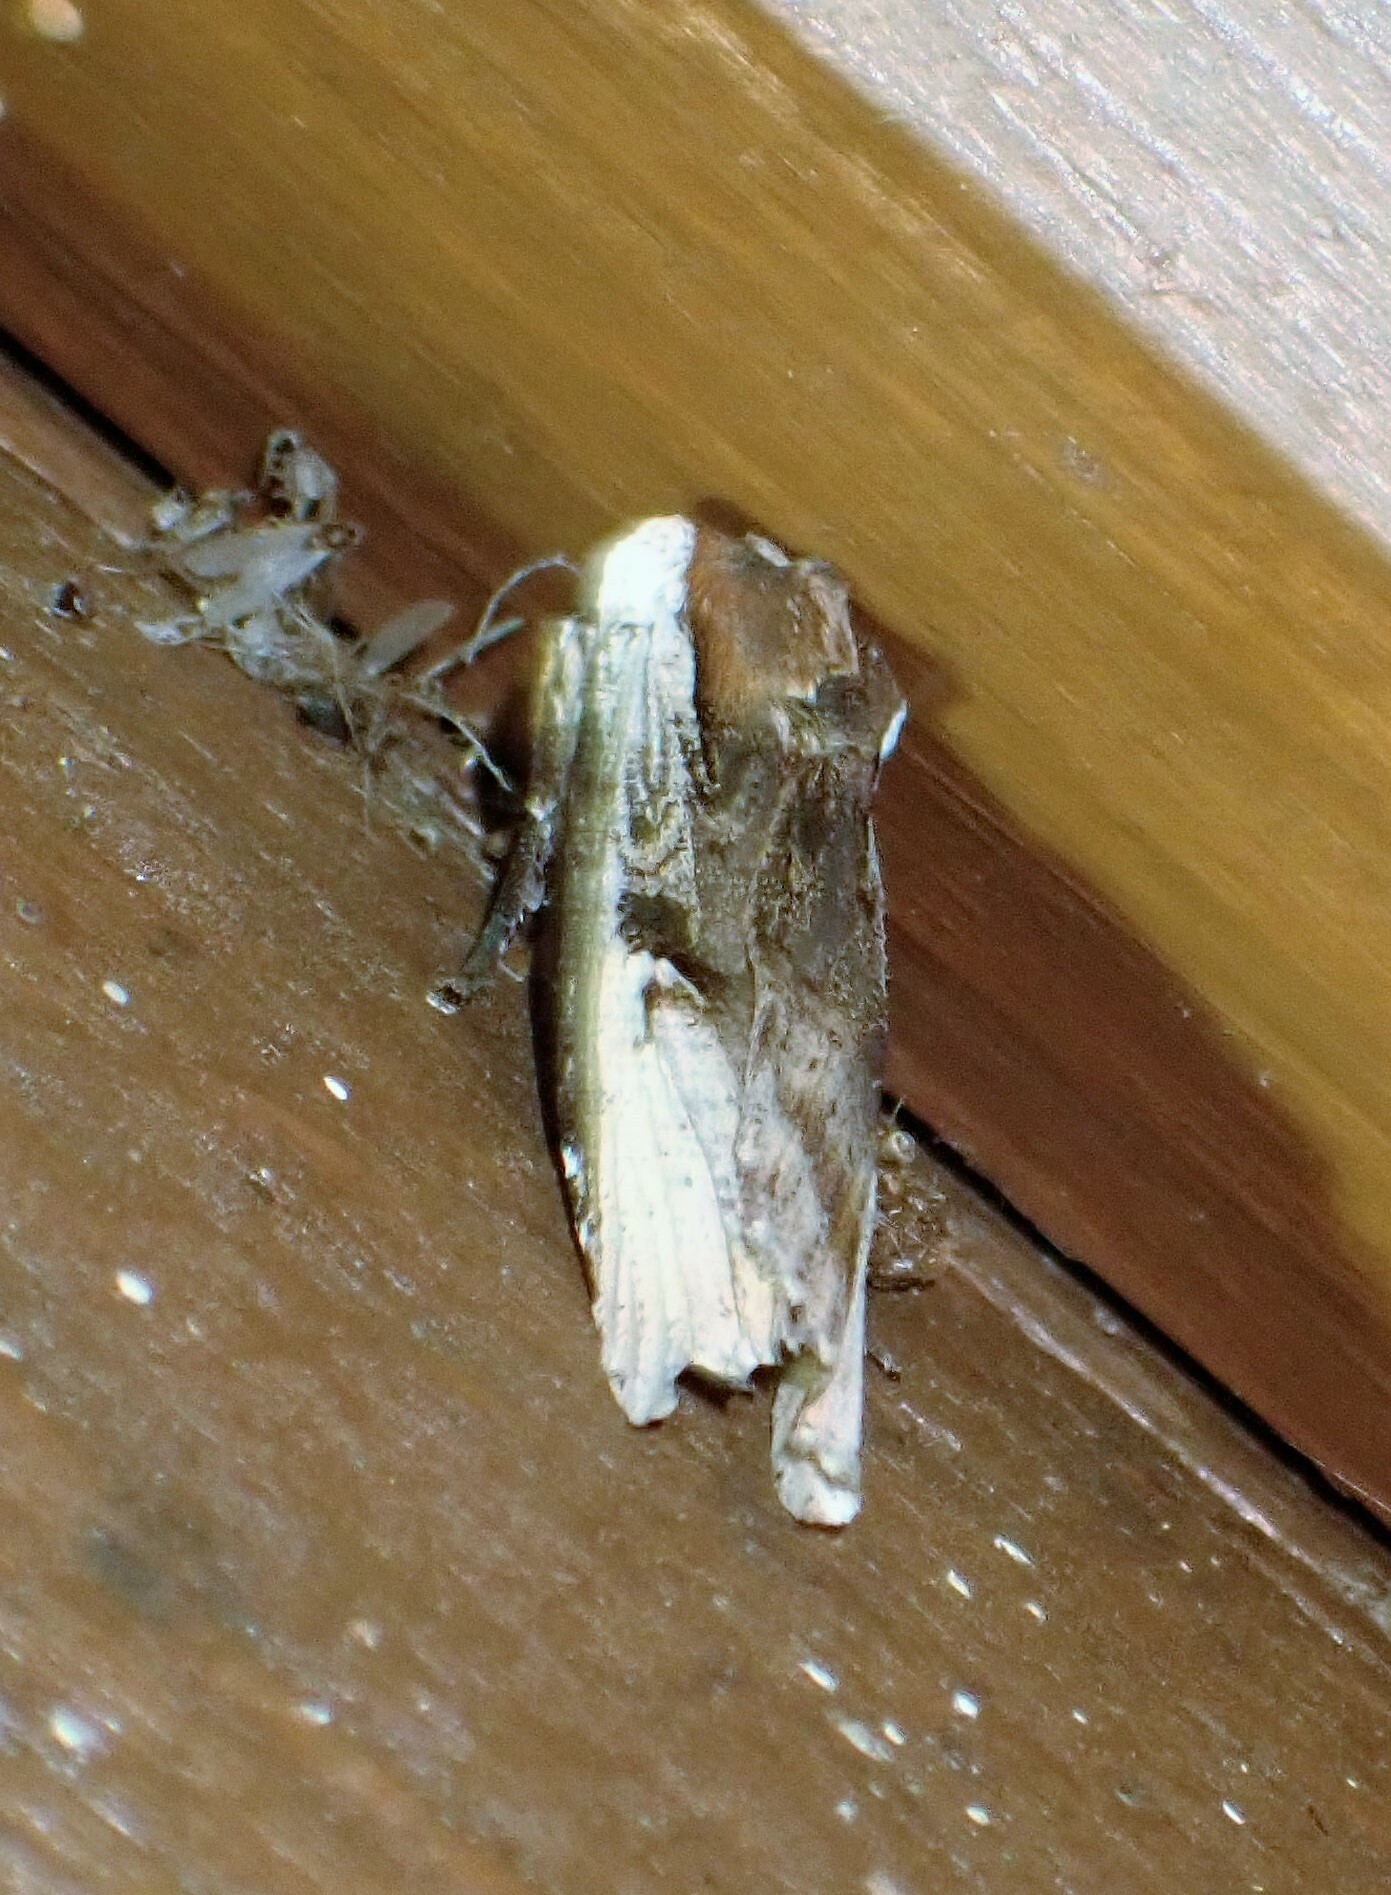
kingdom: Animalia
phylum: Arthropoda
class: Insecta
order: Lepidoptera
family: Noctuidae
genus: Xylena
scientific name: Xylena curvimacula
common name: Dot-and-dash swordgrass moth
